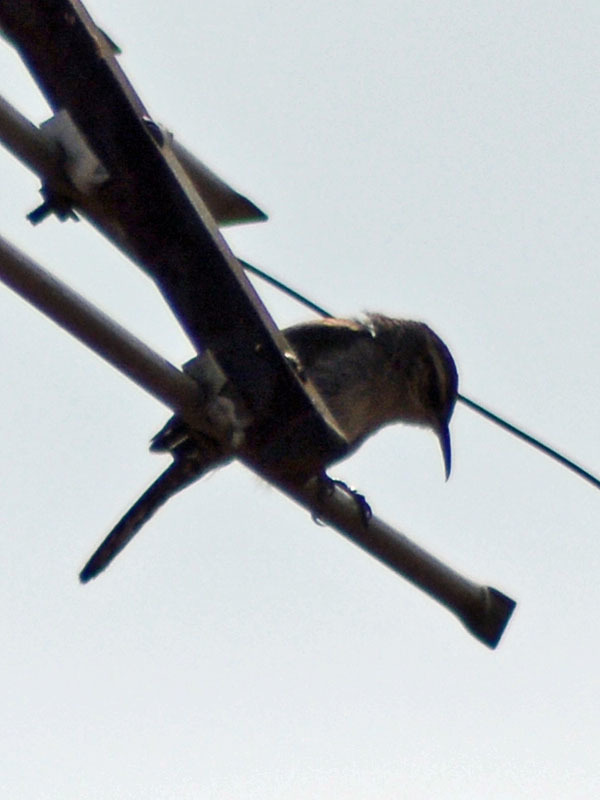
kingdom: Animalia
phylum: Chordata
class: Aves
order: Passeriformes
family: Troglodytidae
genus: Thryomanes
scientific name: Thryomanes bewickii
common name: Bewick's wren
